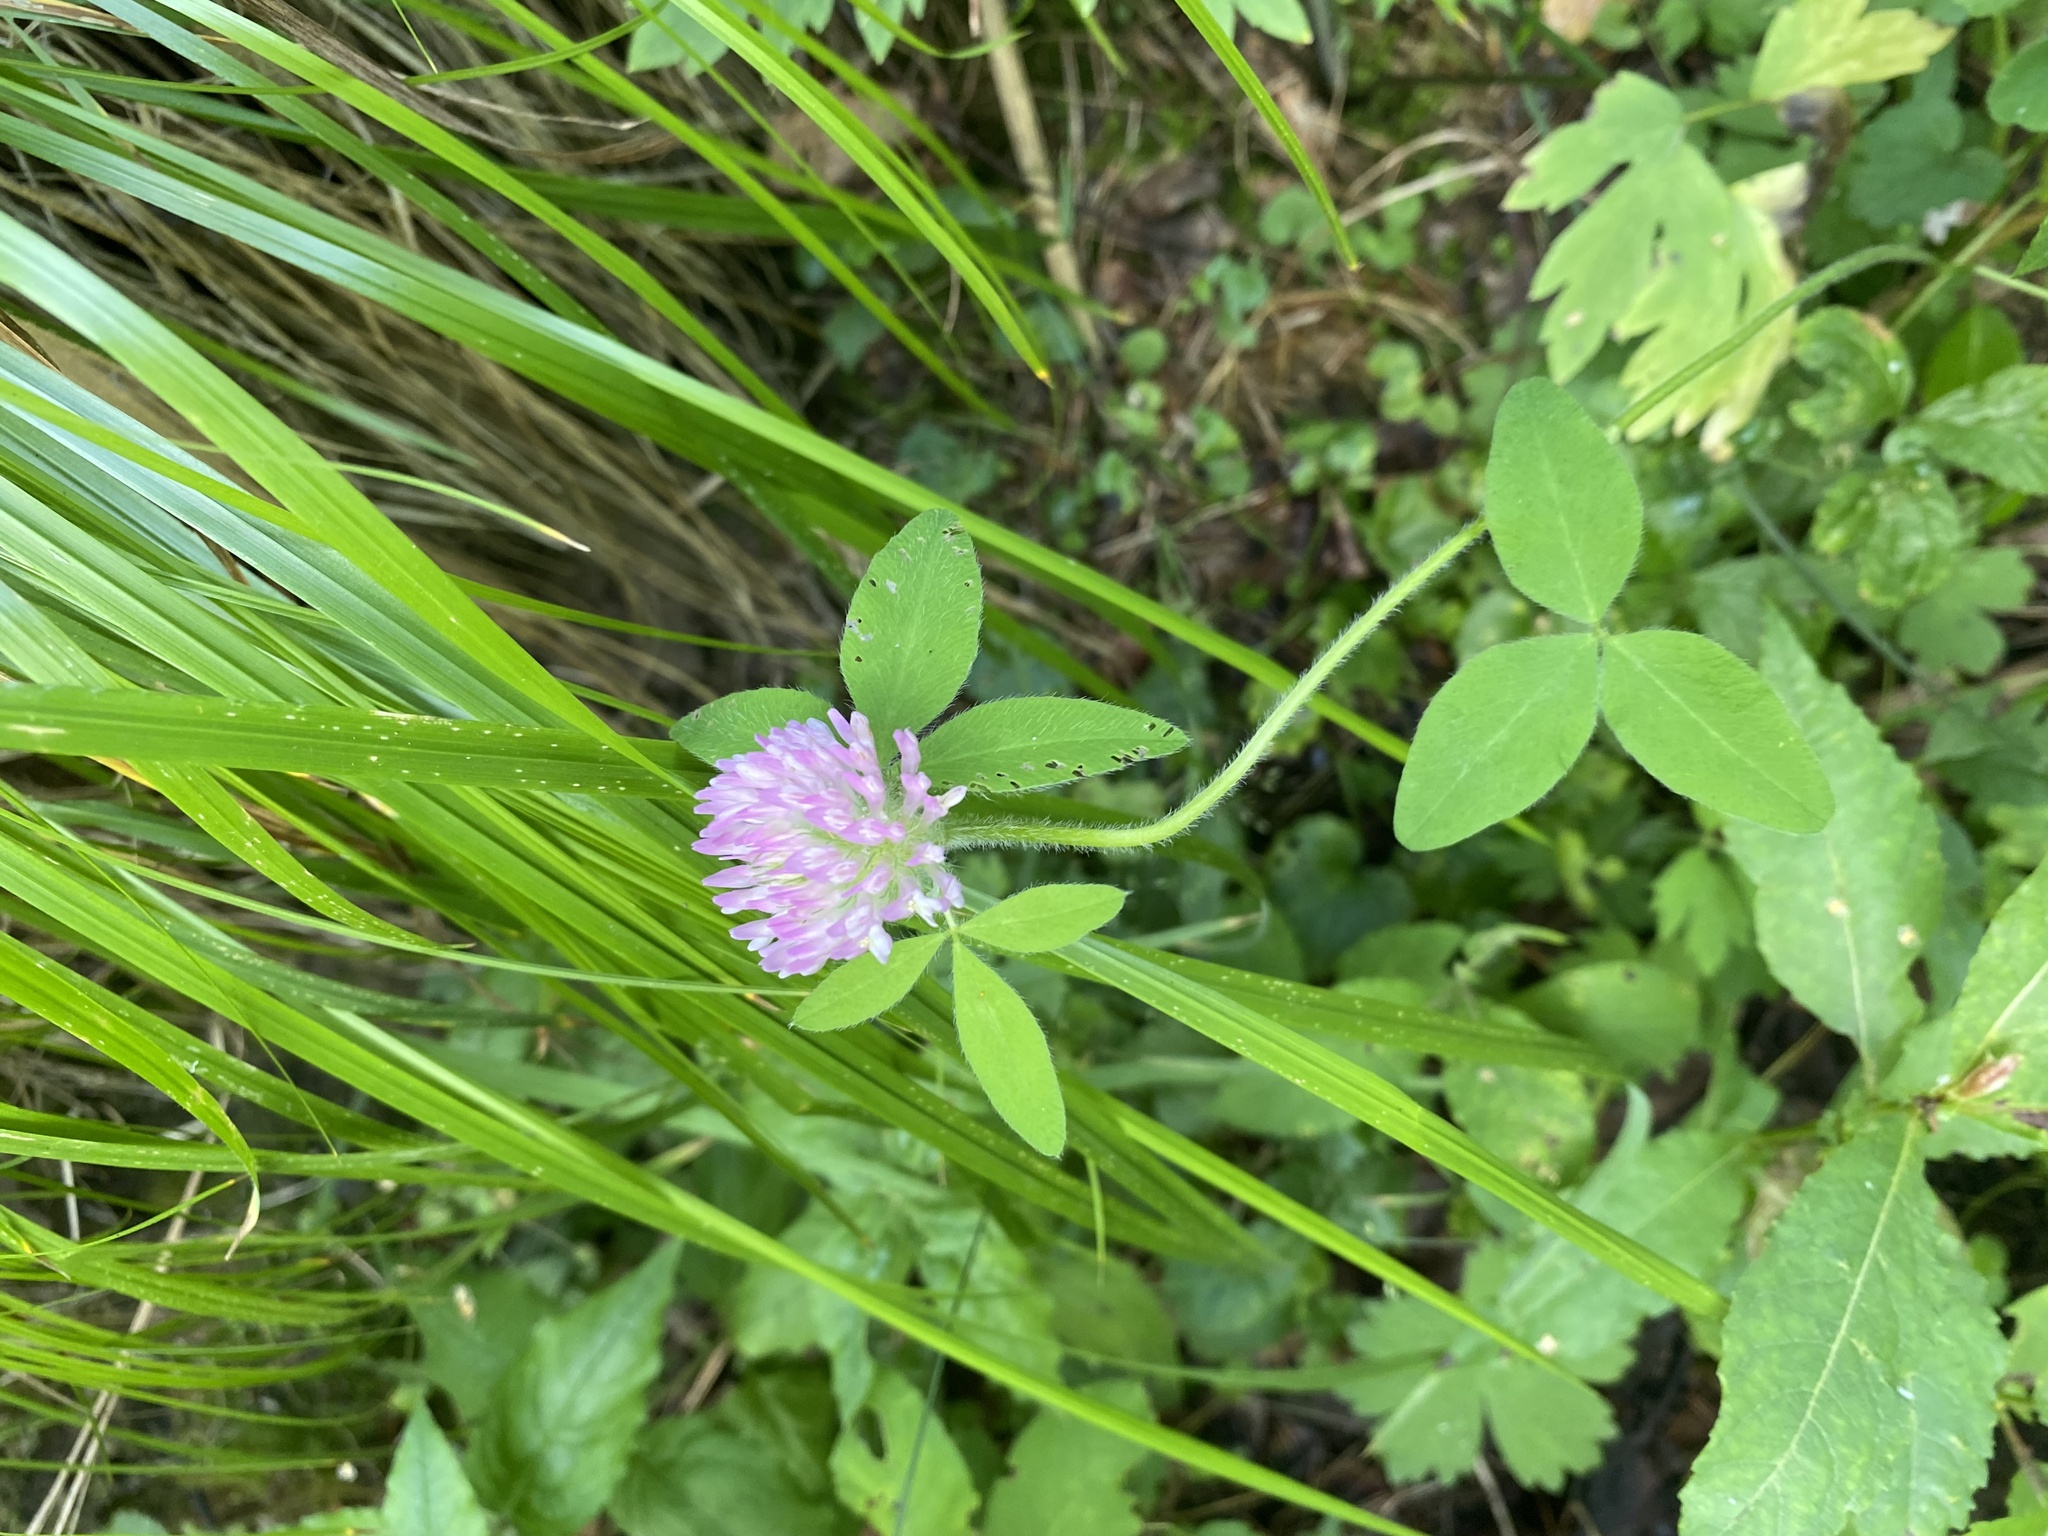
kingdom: Plantae
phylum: Tracheophyta
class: Magnoliopsida
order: Fabales
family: Fabaceae
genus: Trifolium
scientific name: Trifolium pratense
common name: Red clover
